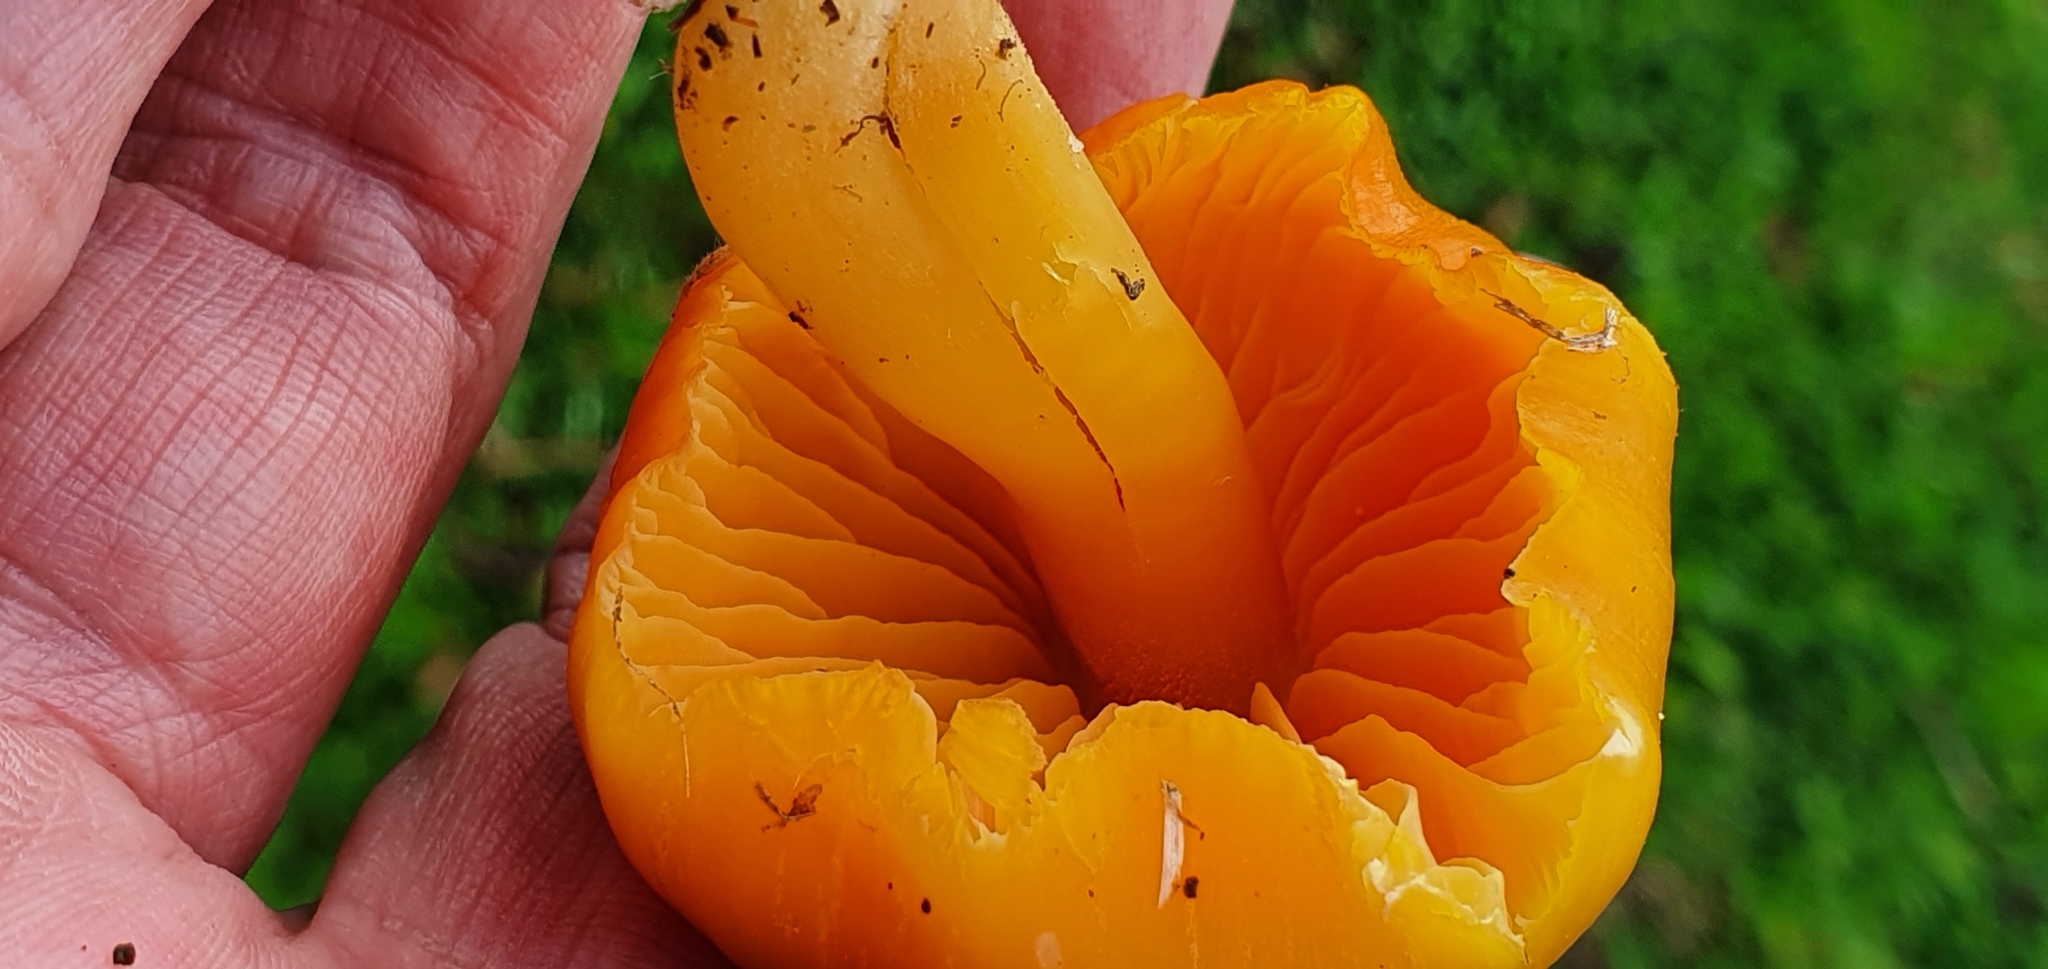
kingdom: Fungi
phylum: Basidiomycota
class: Agaricomycetes
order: Agaricales
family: Hygrophoraceae
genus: Hygrocybe
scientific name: Hygrocybe quieta
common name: Oily waxcap
